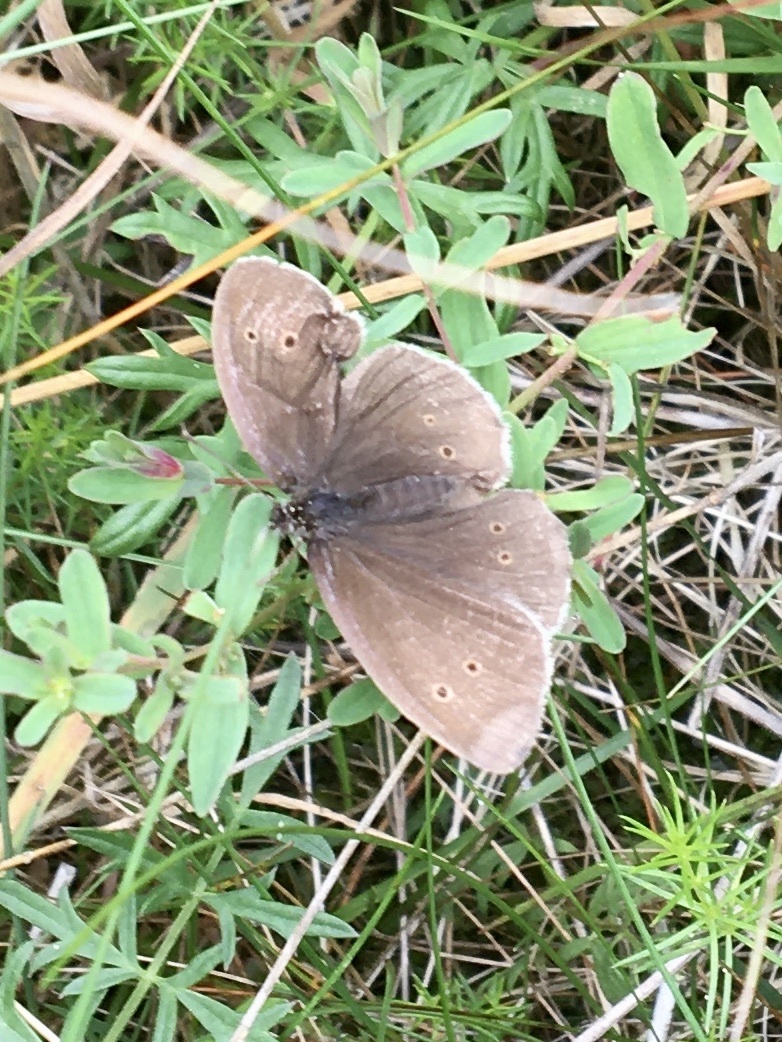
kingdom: Animalia
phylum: Arthropoda
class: Insecta
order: Lepidoptera
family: Nymphalidae
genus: Aphantopus
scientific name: Aphantopus hyperantus
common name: Ringlet
